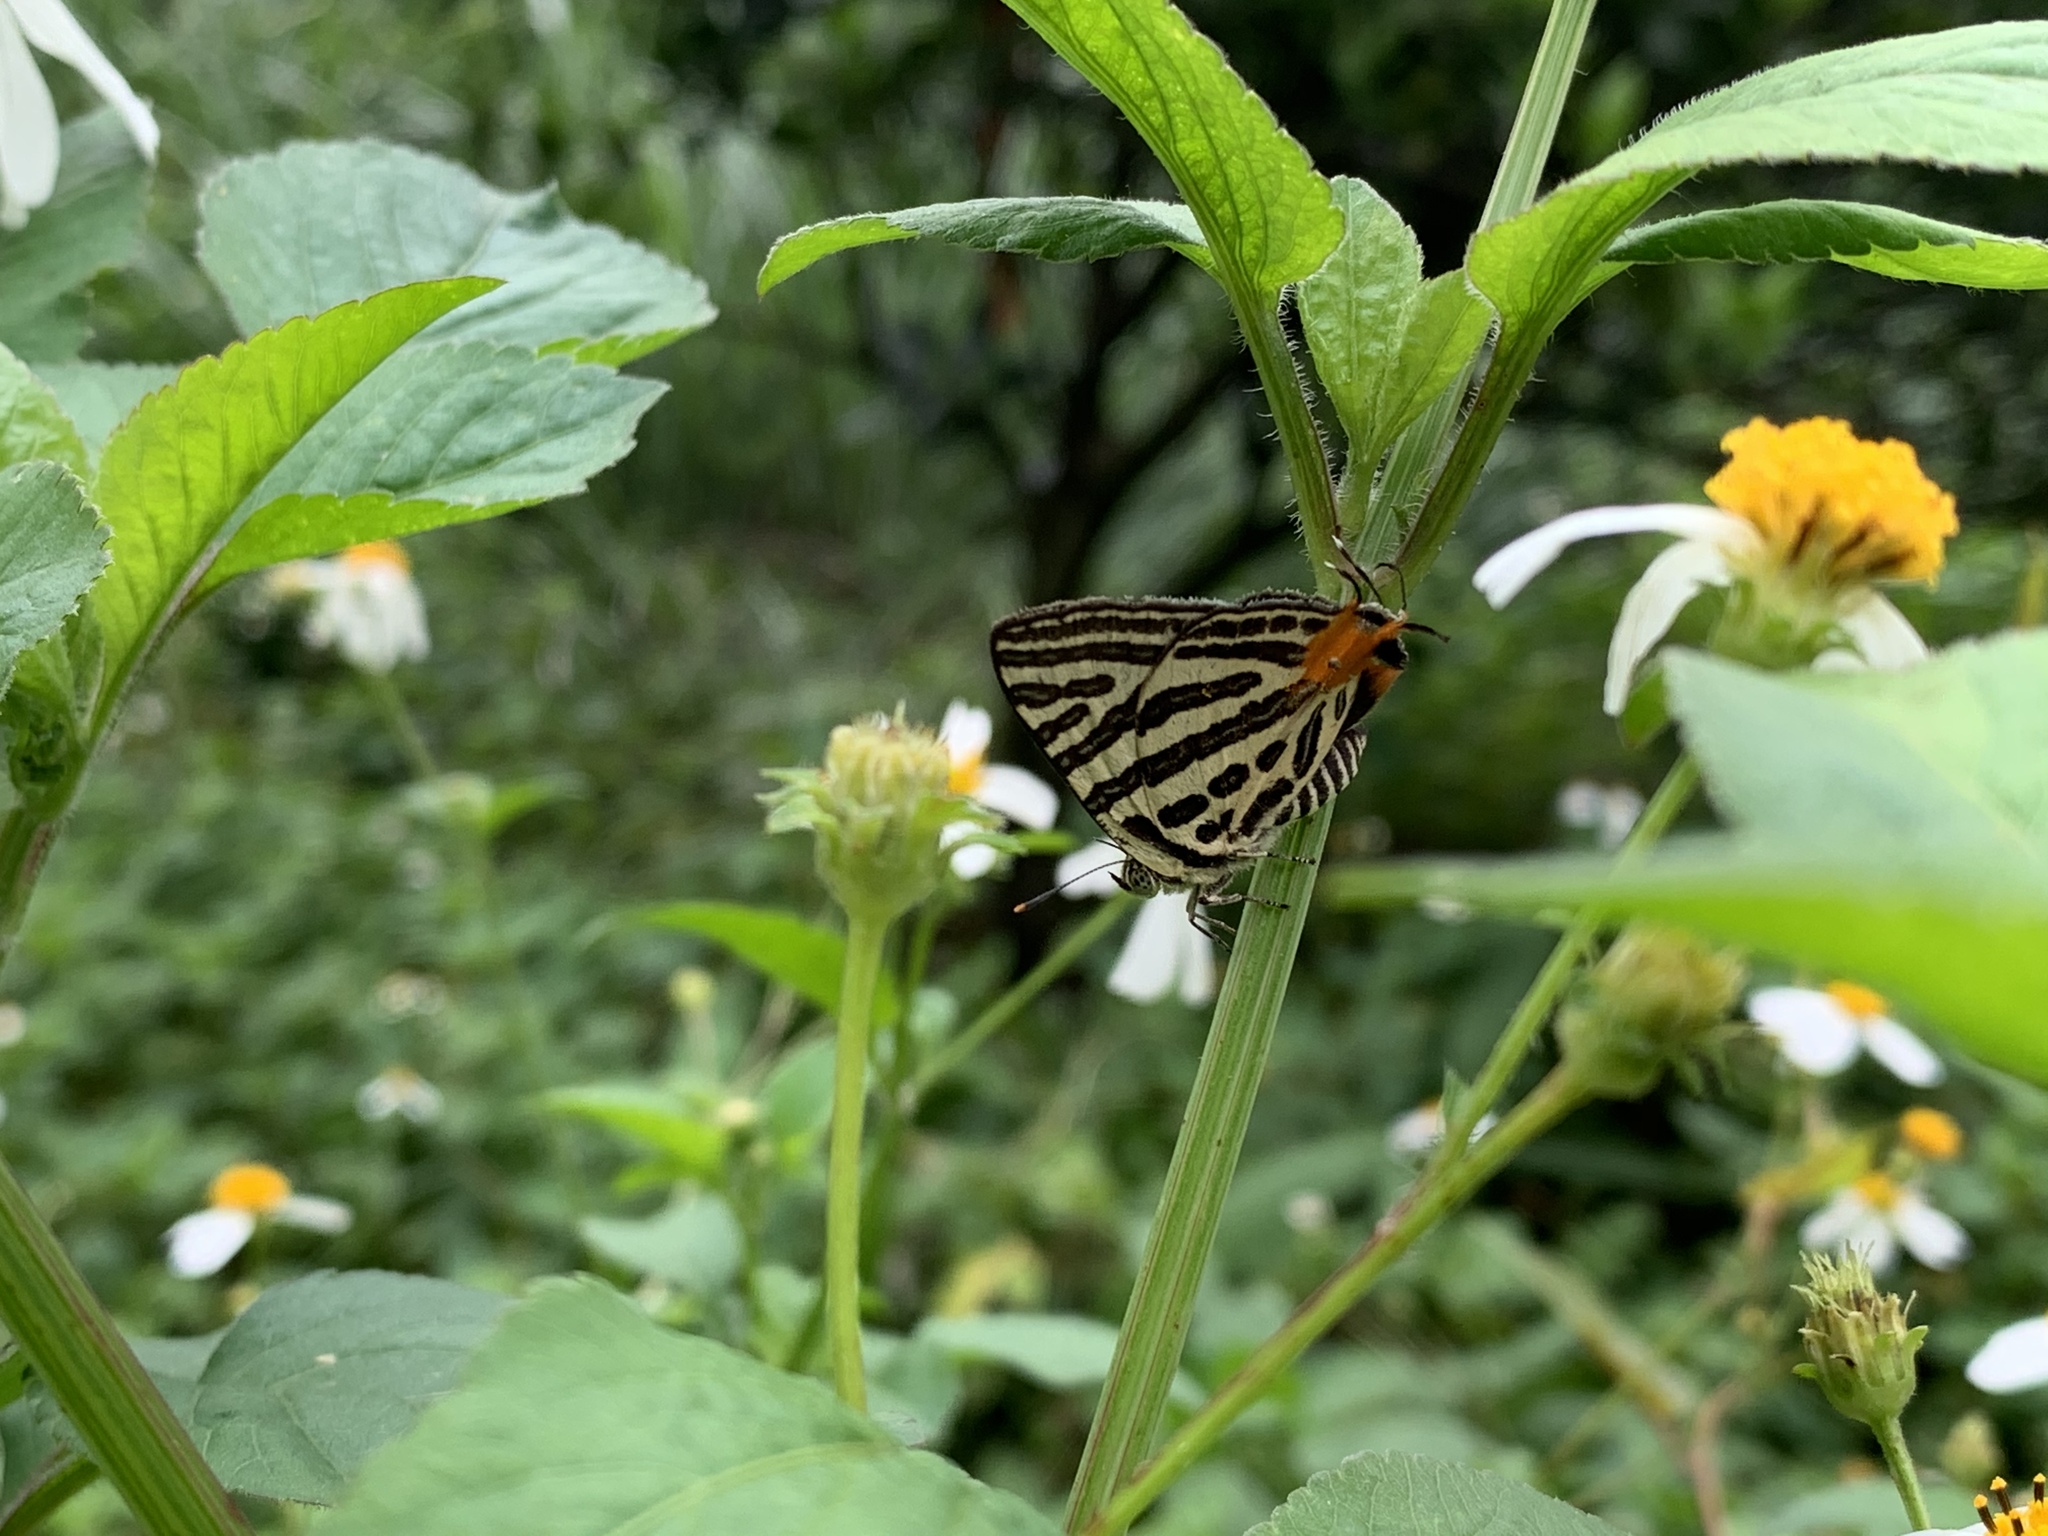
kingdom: Animalia
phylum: Arthropoda
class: Insecta
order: Lepidoptera
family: Lycaenidae
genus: Cigaritis
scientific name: Cigaritis syama
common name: Club silverline
